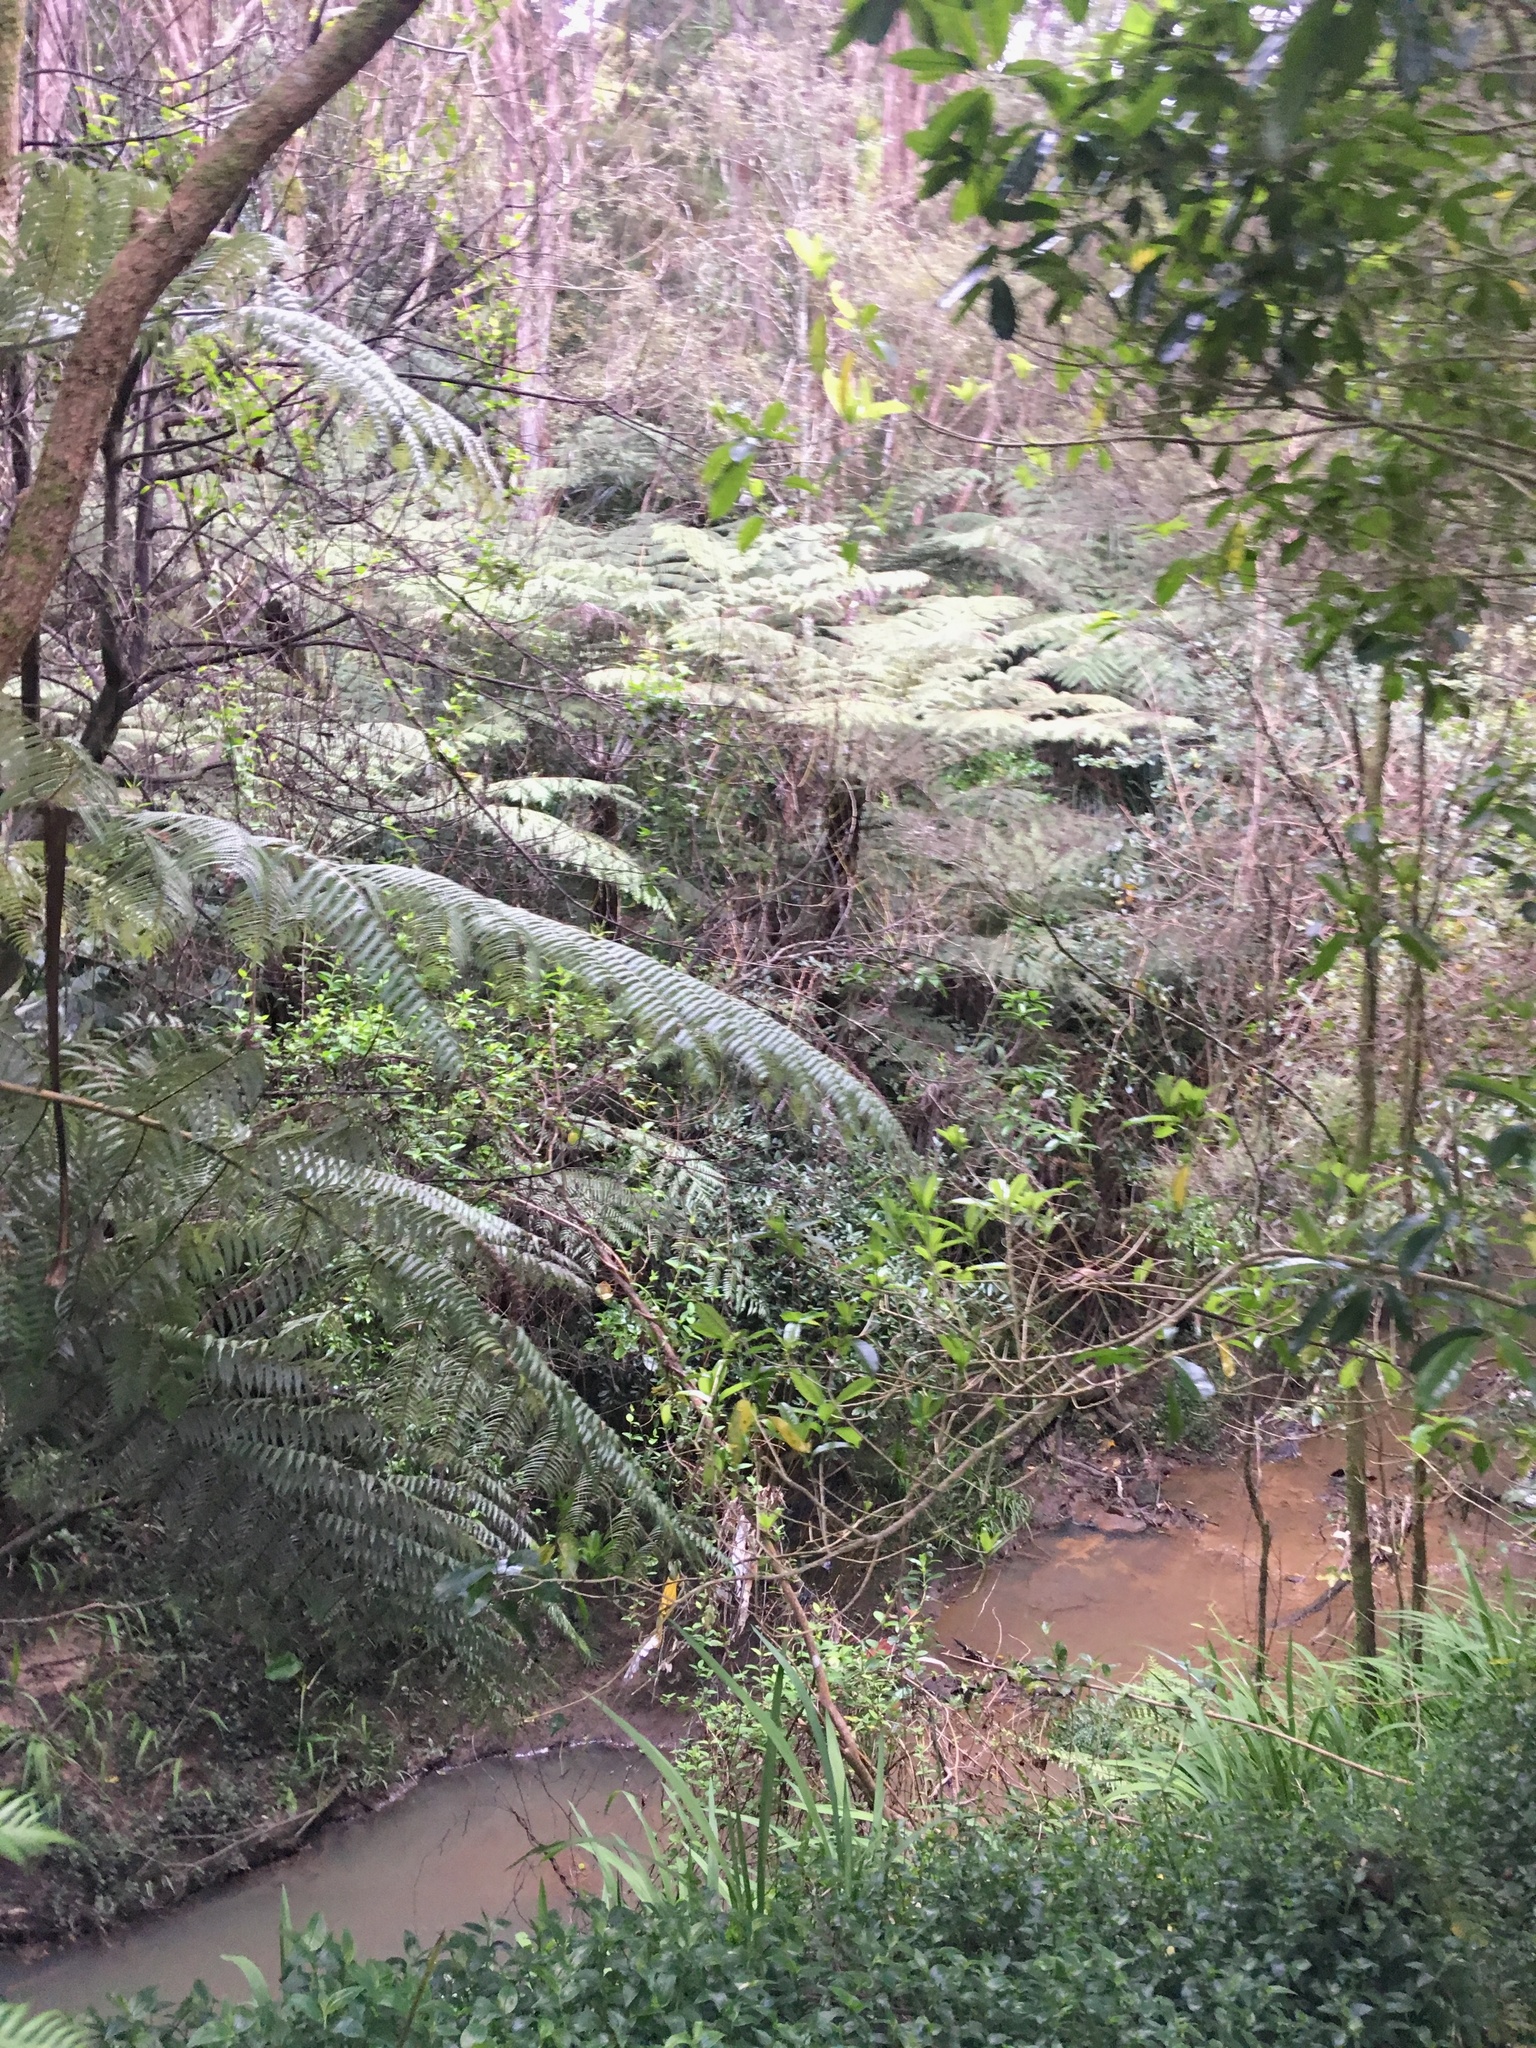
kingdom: Plantae
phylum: Tracheophyta
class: Magnoliopsida
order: Gentianales
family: Loganiaceae
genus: Geniostoma
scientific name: Geniostoma ligustrifolium
